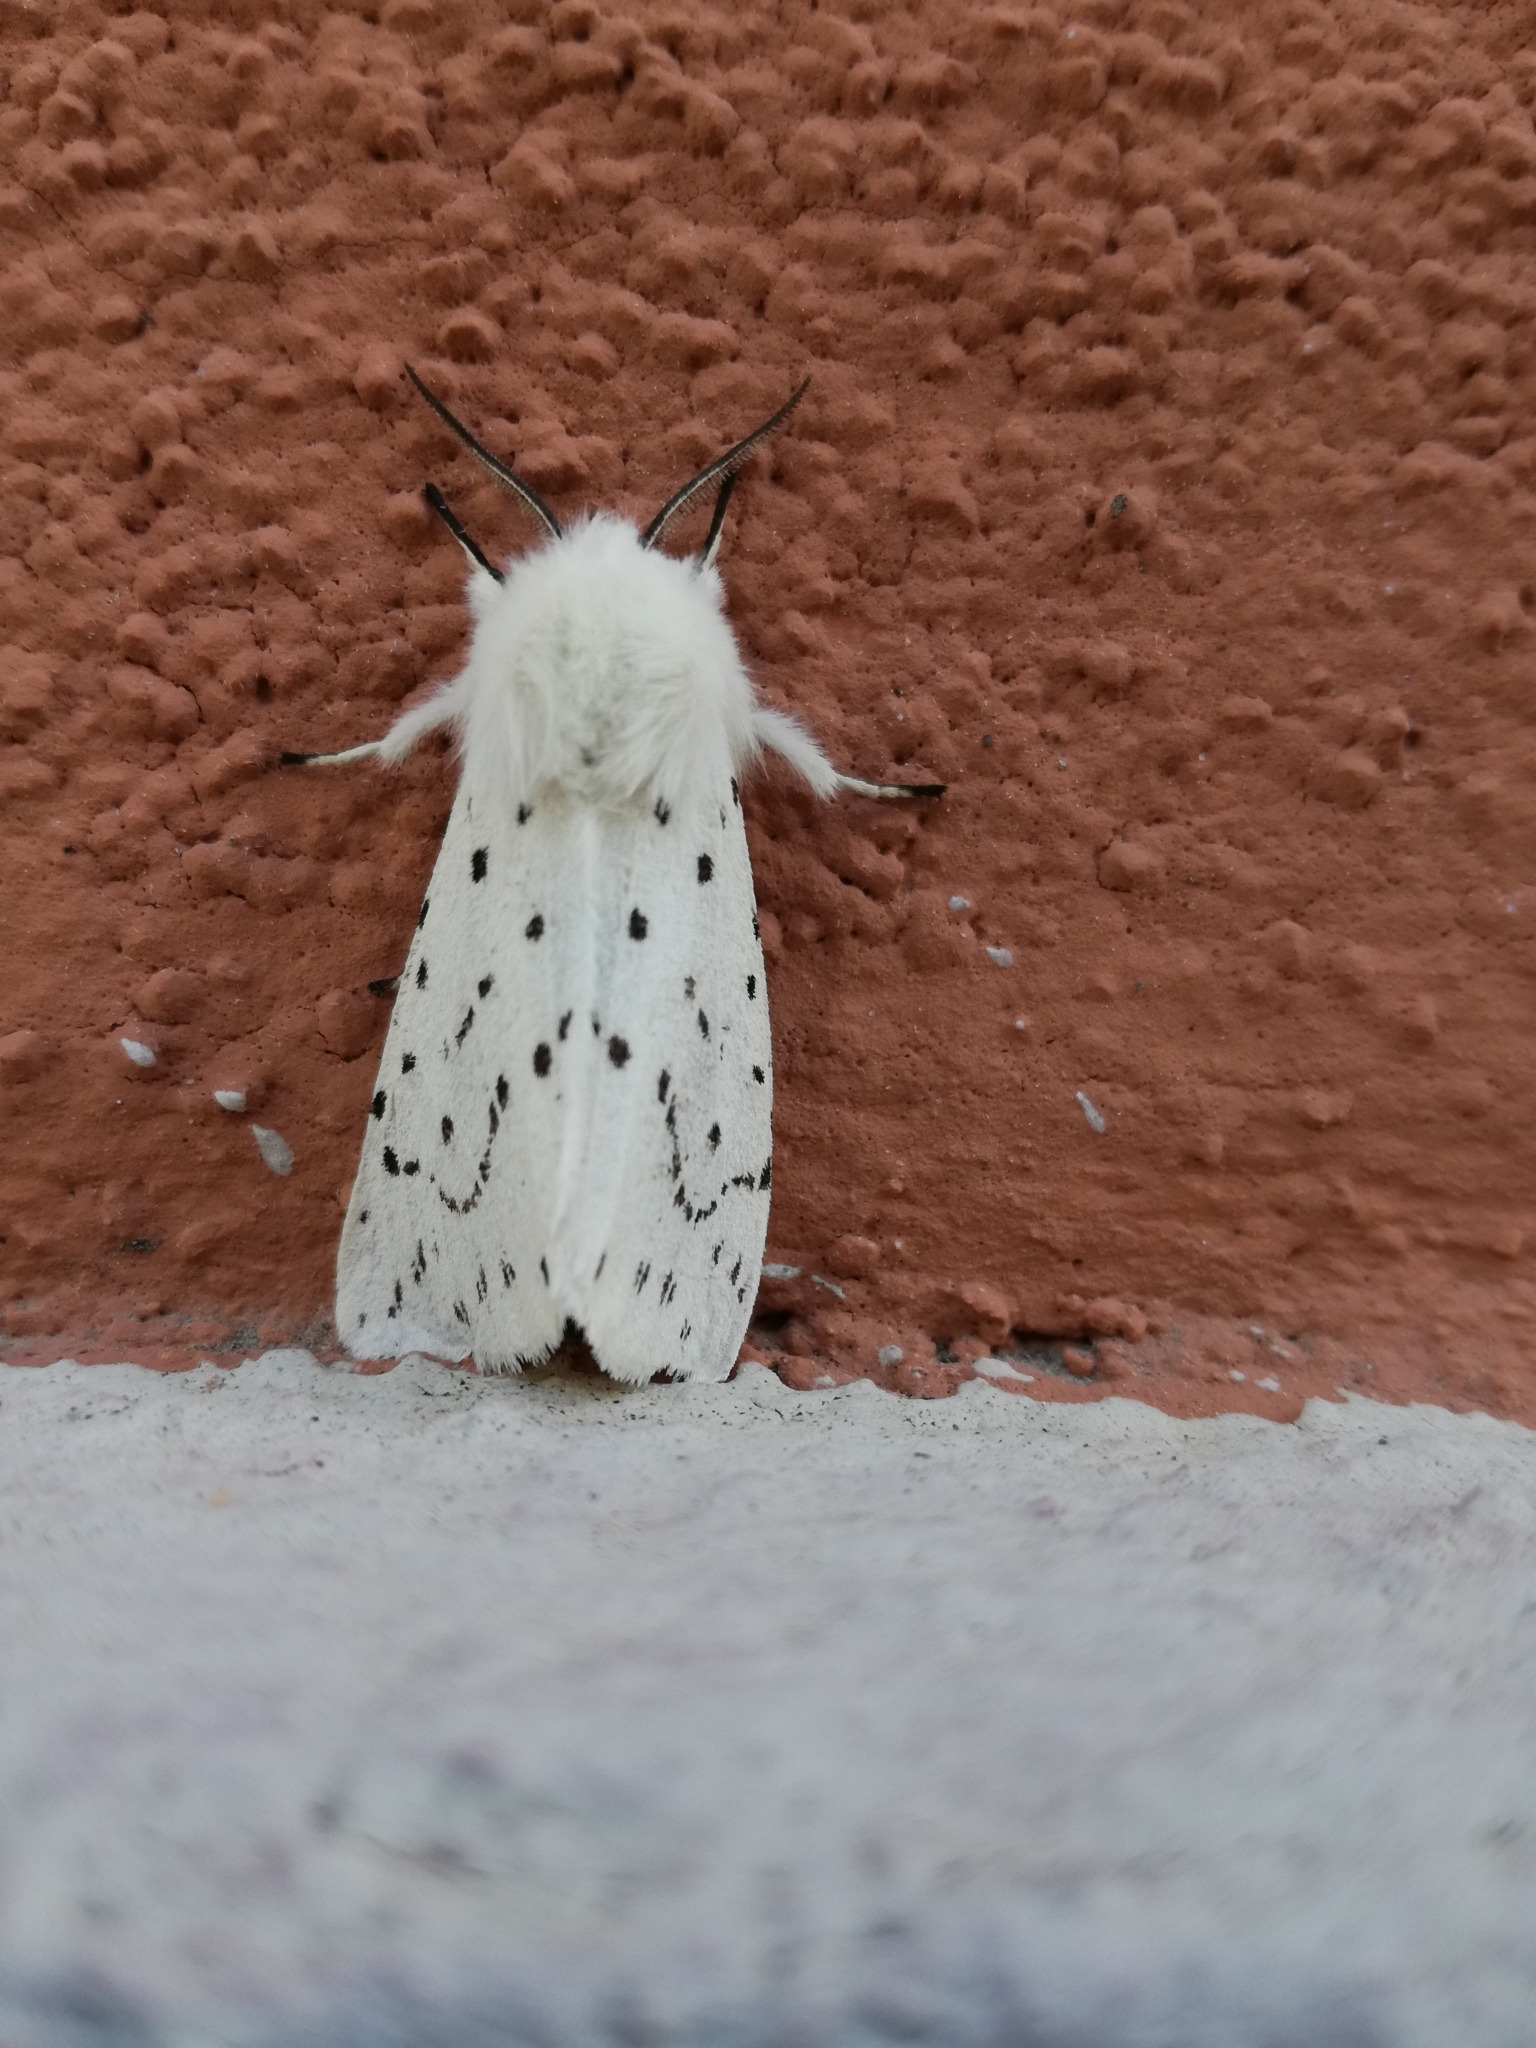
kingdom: Animalia
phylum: Arthropoda
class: Insecta
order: Lepidoptera
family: Erebidae
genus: Spilosoma
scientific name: Spilosoma lubricipeda
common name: White ermine
